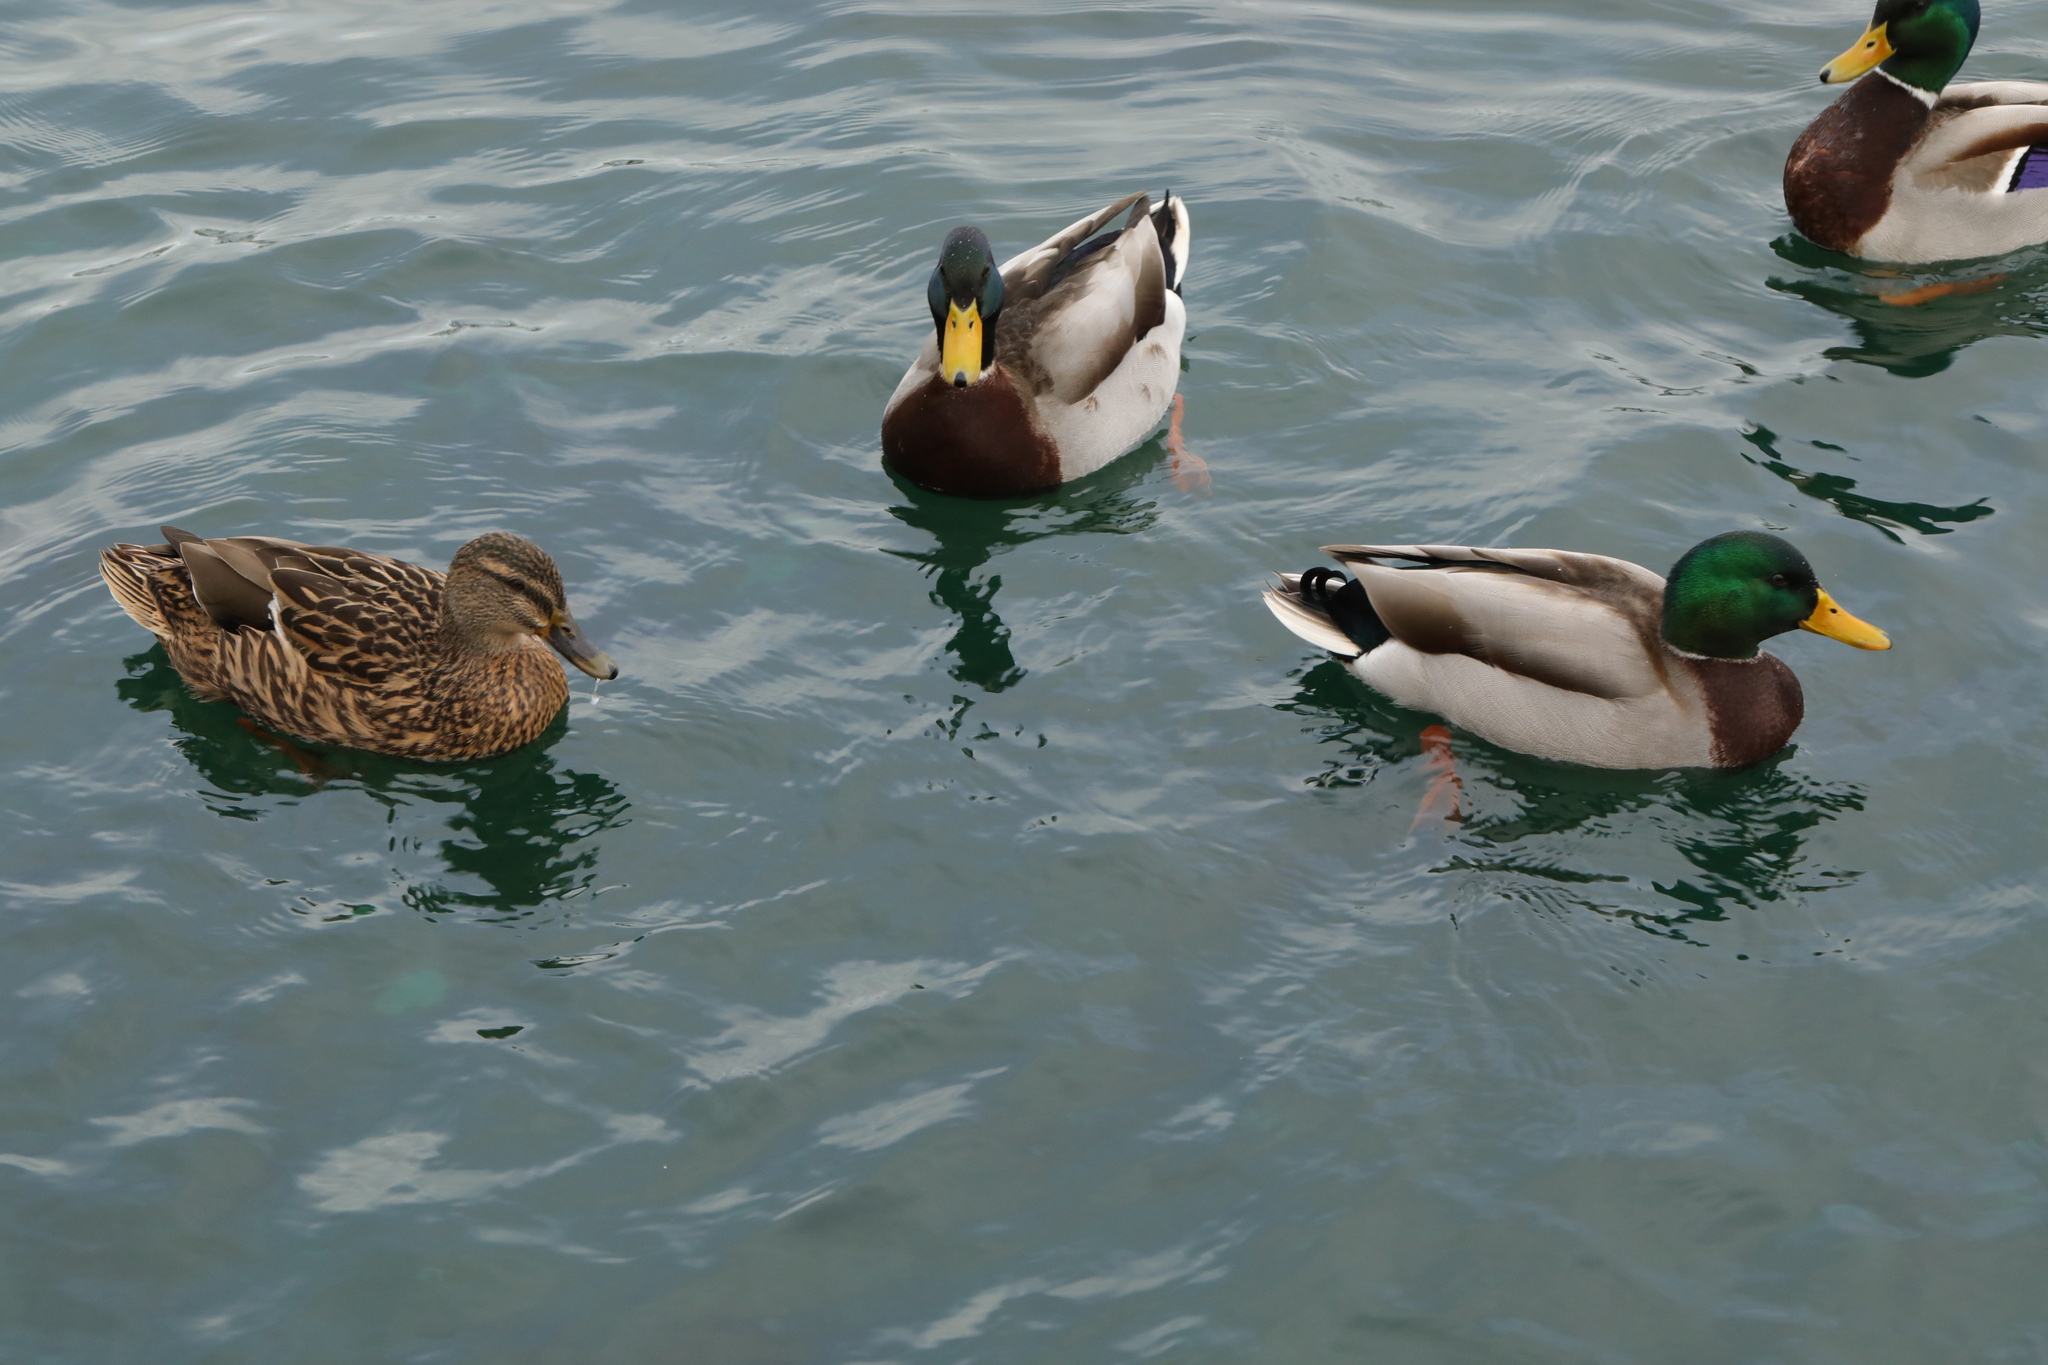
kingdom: Animalia
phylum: Chordata
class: Aves
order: Anseriformes
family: Anatidae
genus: Anas
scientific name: Anas platyrhynchos
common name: Mallard
